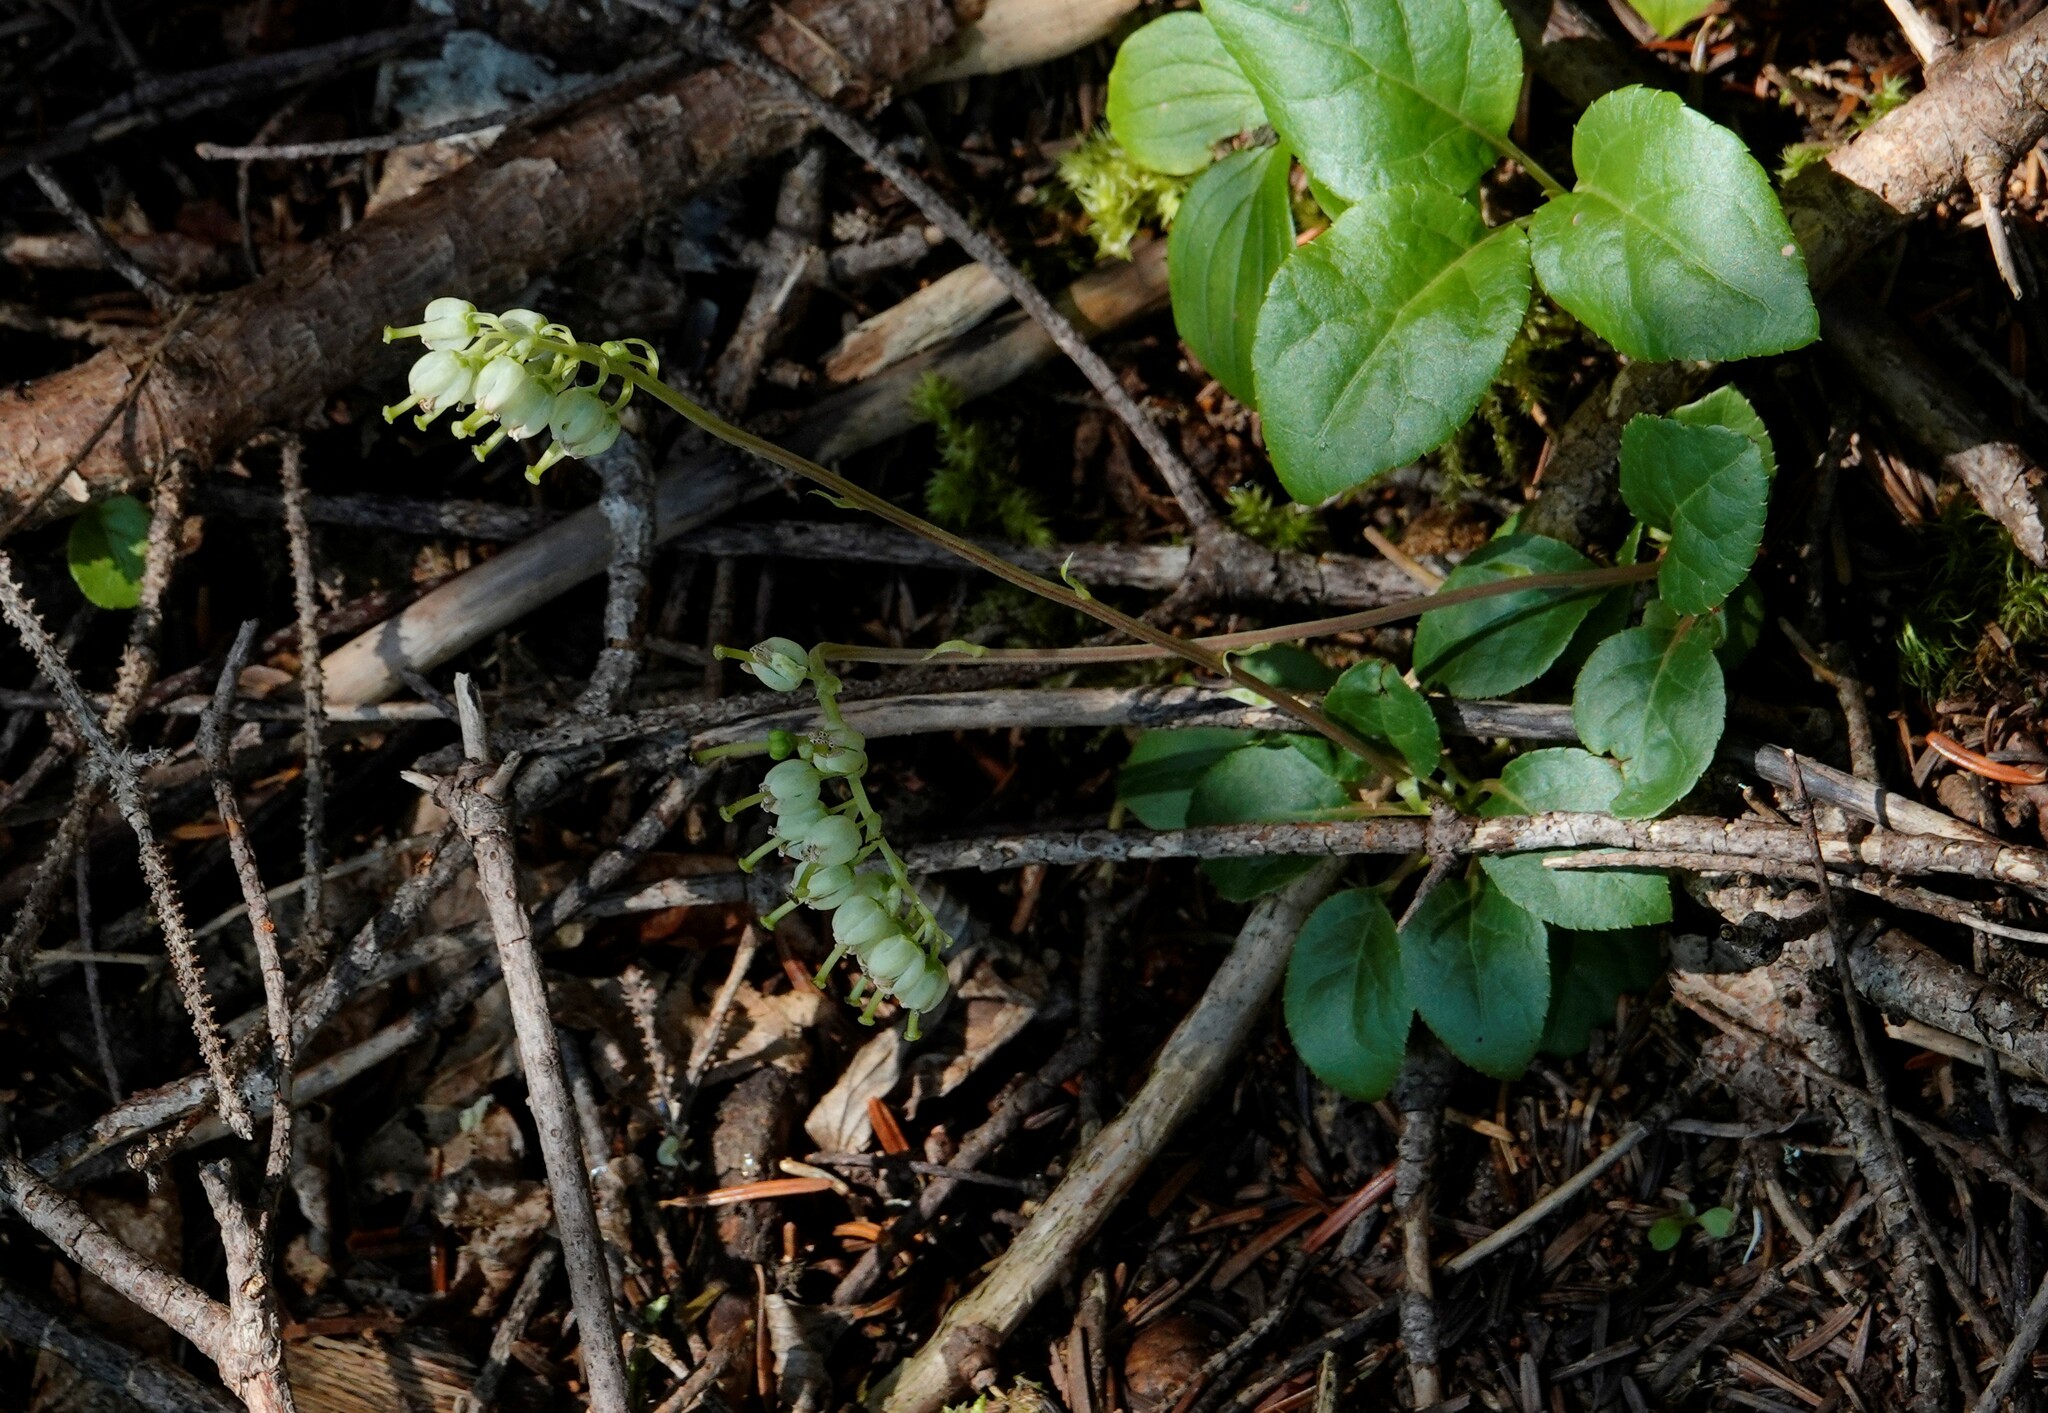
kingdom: Plantae
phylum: Tracheophyta
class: Magnoliopsida
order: Ericales
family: Ericaceae
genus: Orthilia
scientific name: Orthilia secunda
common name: One-sided orthilia
